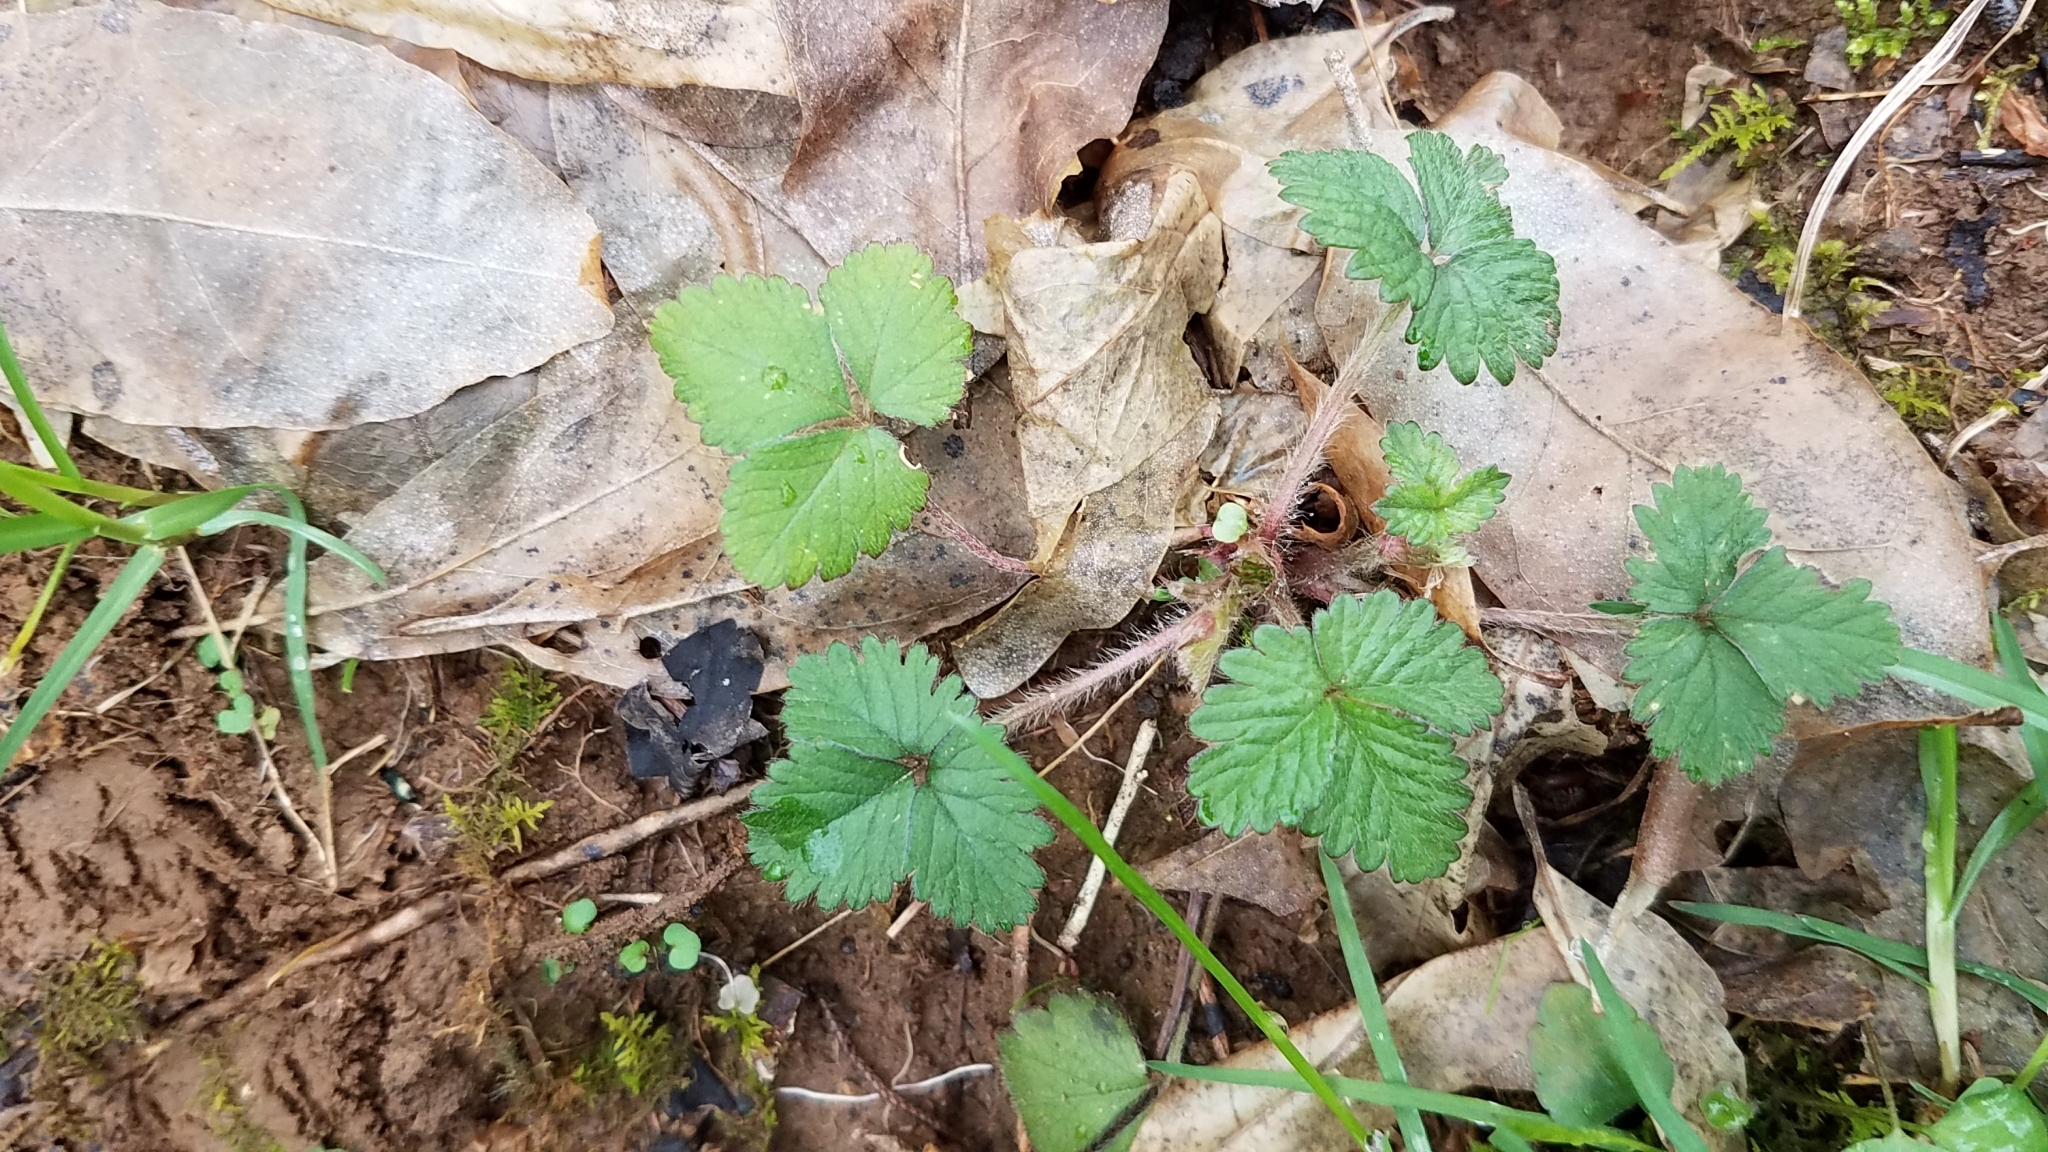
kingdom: Plantae
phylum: Tracheophyta
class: Magnoliopsida
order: Rosales
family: Rosaceae
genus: Potentilla
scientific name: Potentilla indica
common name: Yellow-flowered strawberry
